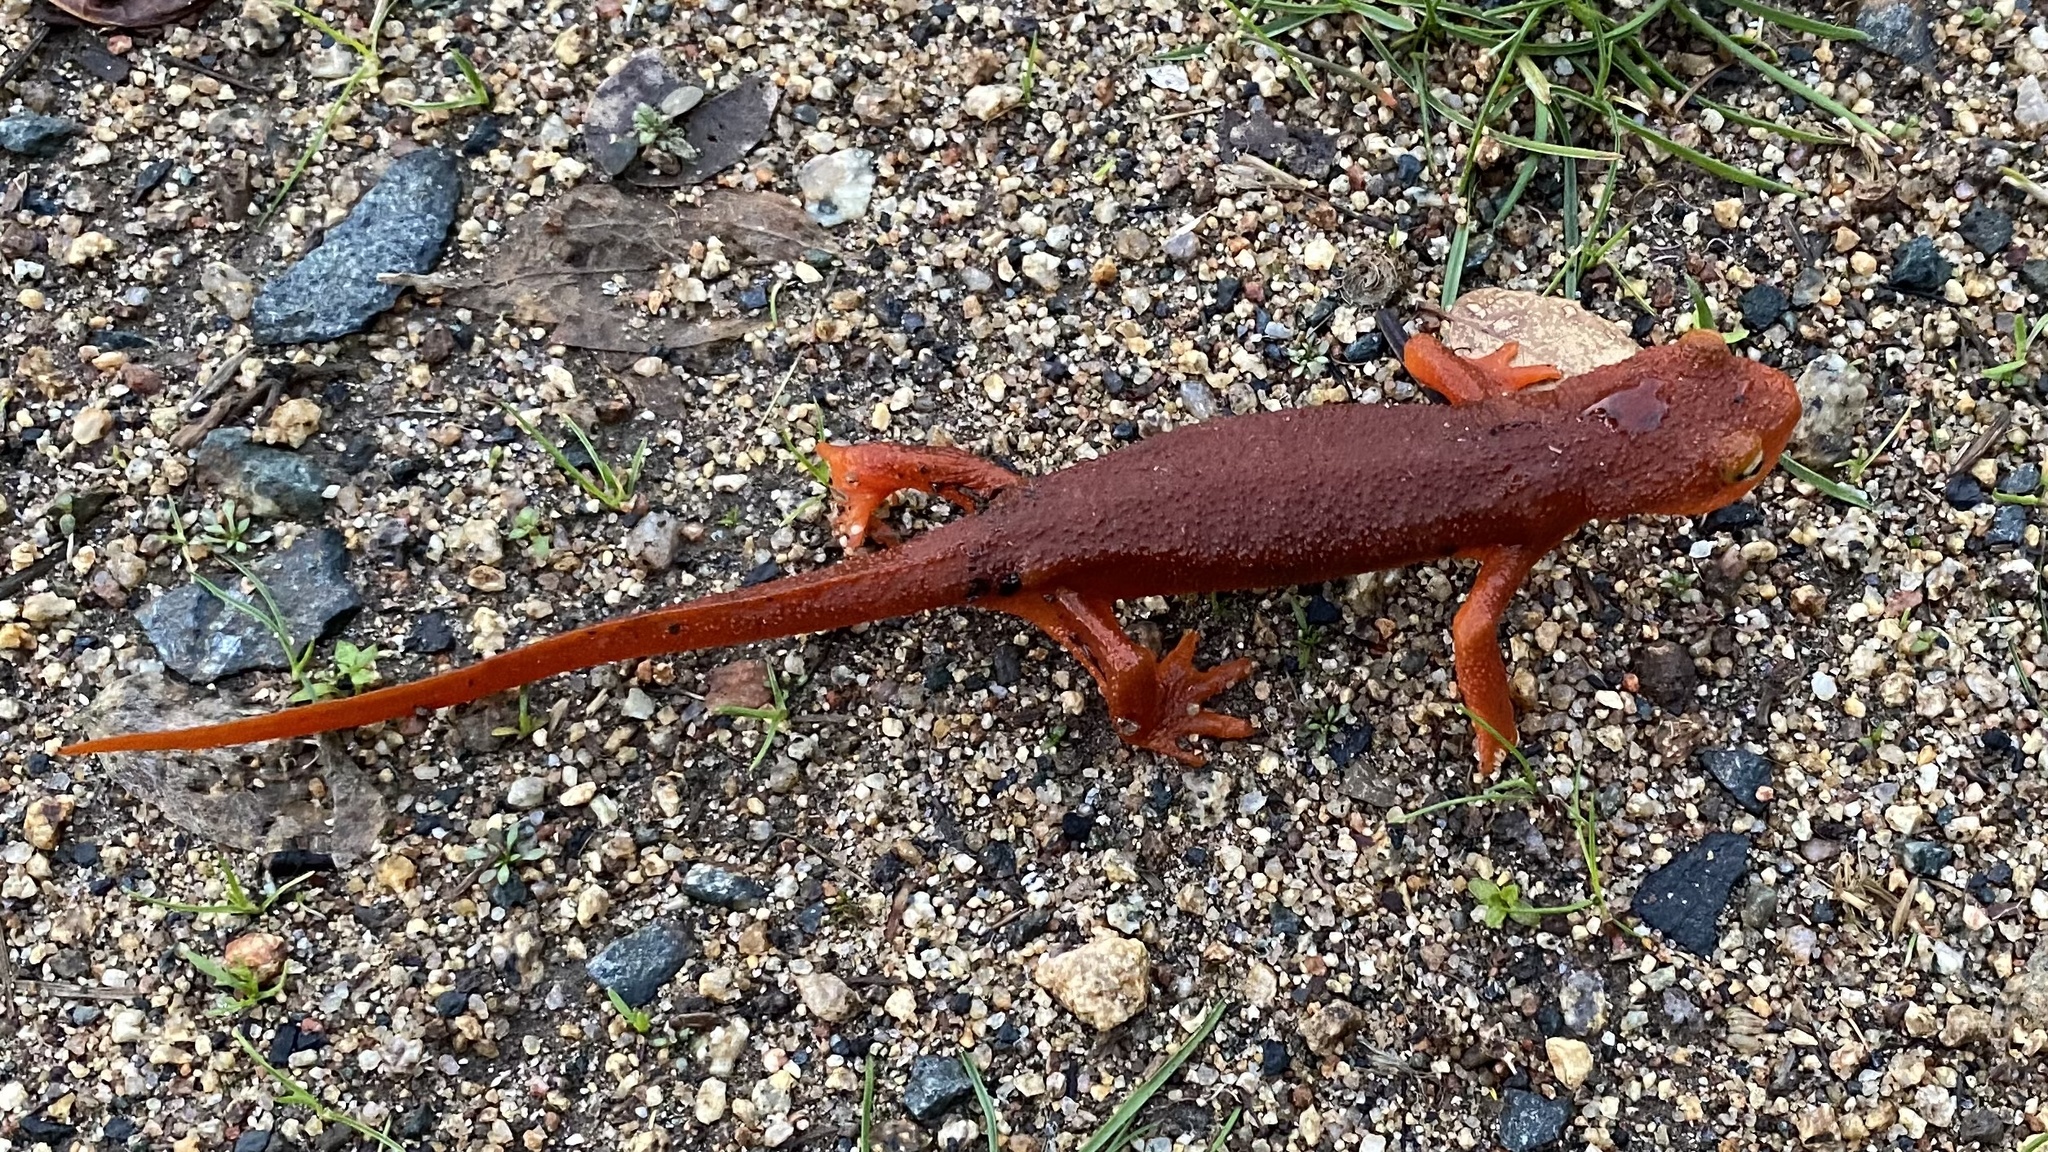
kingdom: Animalia
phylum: Chordata
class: Amphibia
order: Caudata
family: Salamandridae
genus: Taricha
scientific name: Taricha torosa
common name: California newt
